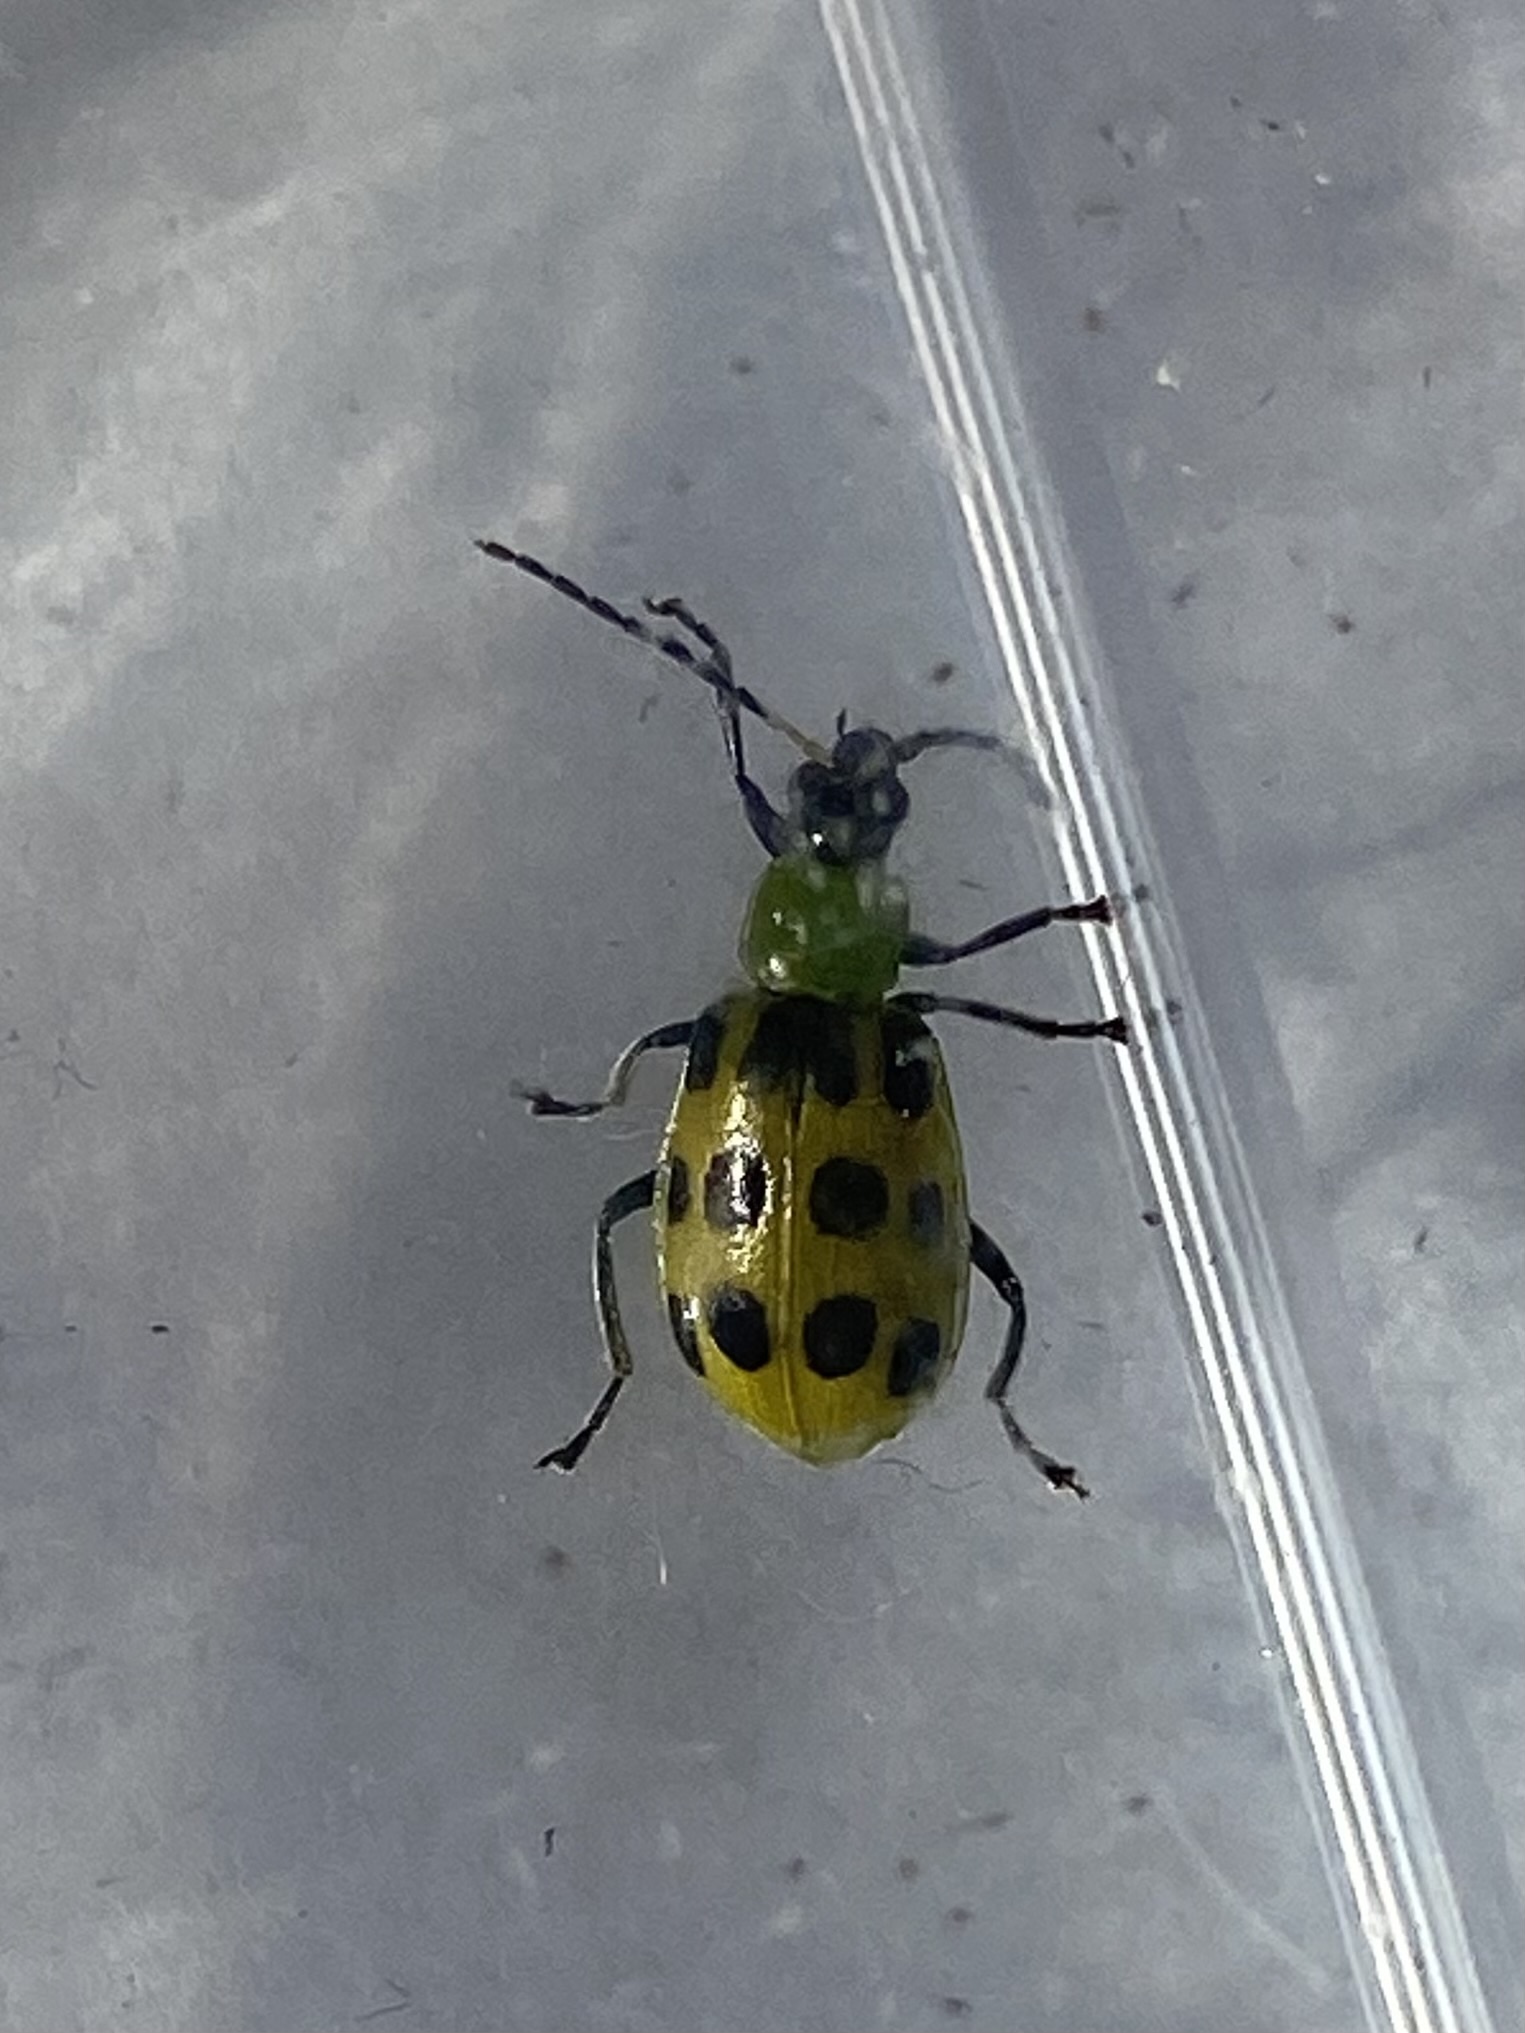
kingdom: Animalia
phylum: Arthropoda
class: Insecta
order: Coleoptera
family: Chrysomelidae
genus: Diabrotica
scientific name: Diabrotica undecimpunctata
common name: Spotted cucumber beetle
